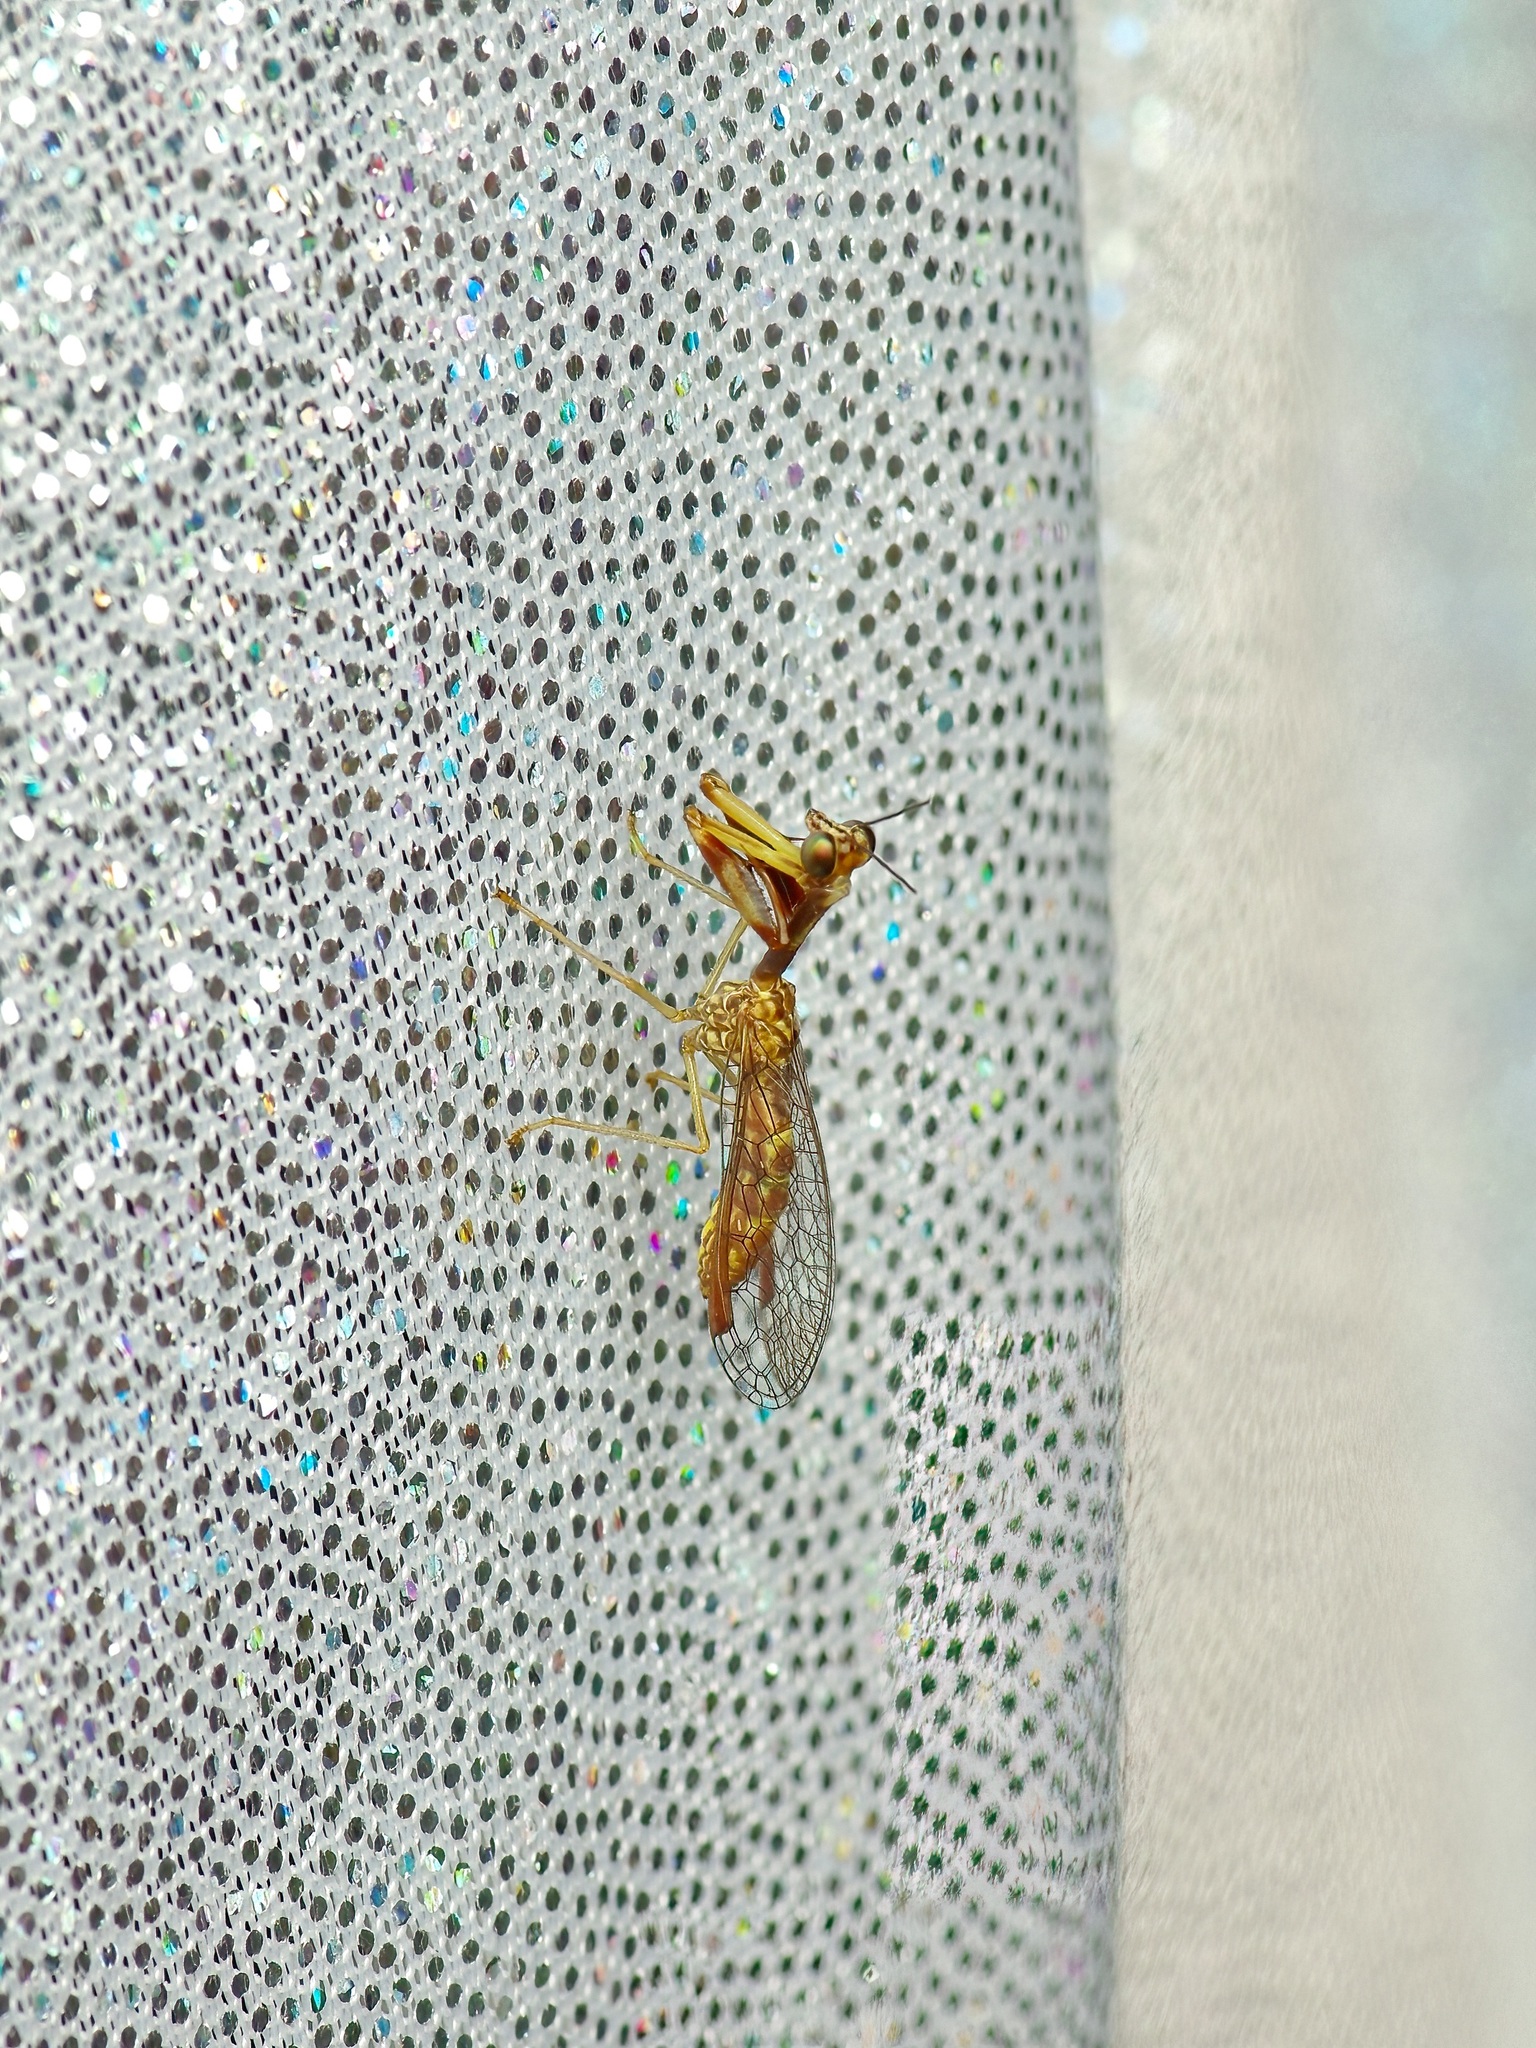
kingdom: Animalia
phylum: Arthropoda
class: Insecta
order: Neuroptera
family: Mantispidae
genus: Leptomantispa
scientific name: Leptomantispa pulchella
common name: Stevens's mantidfly
